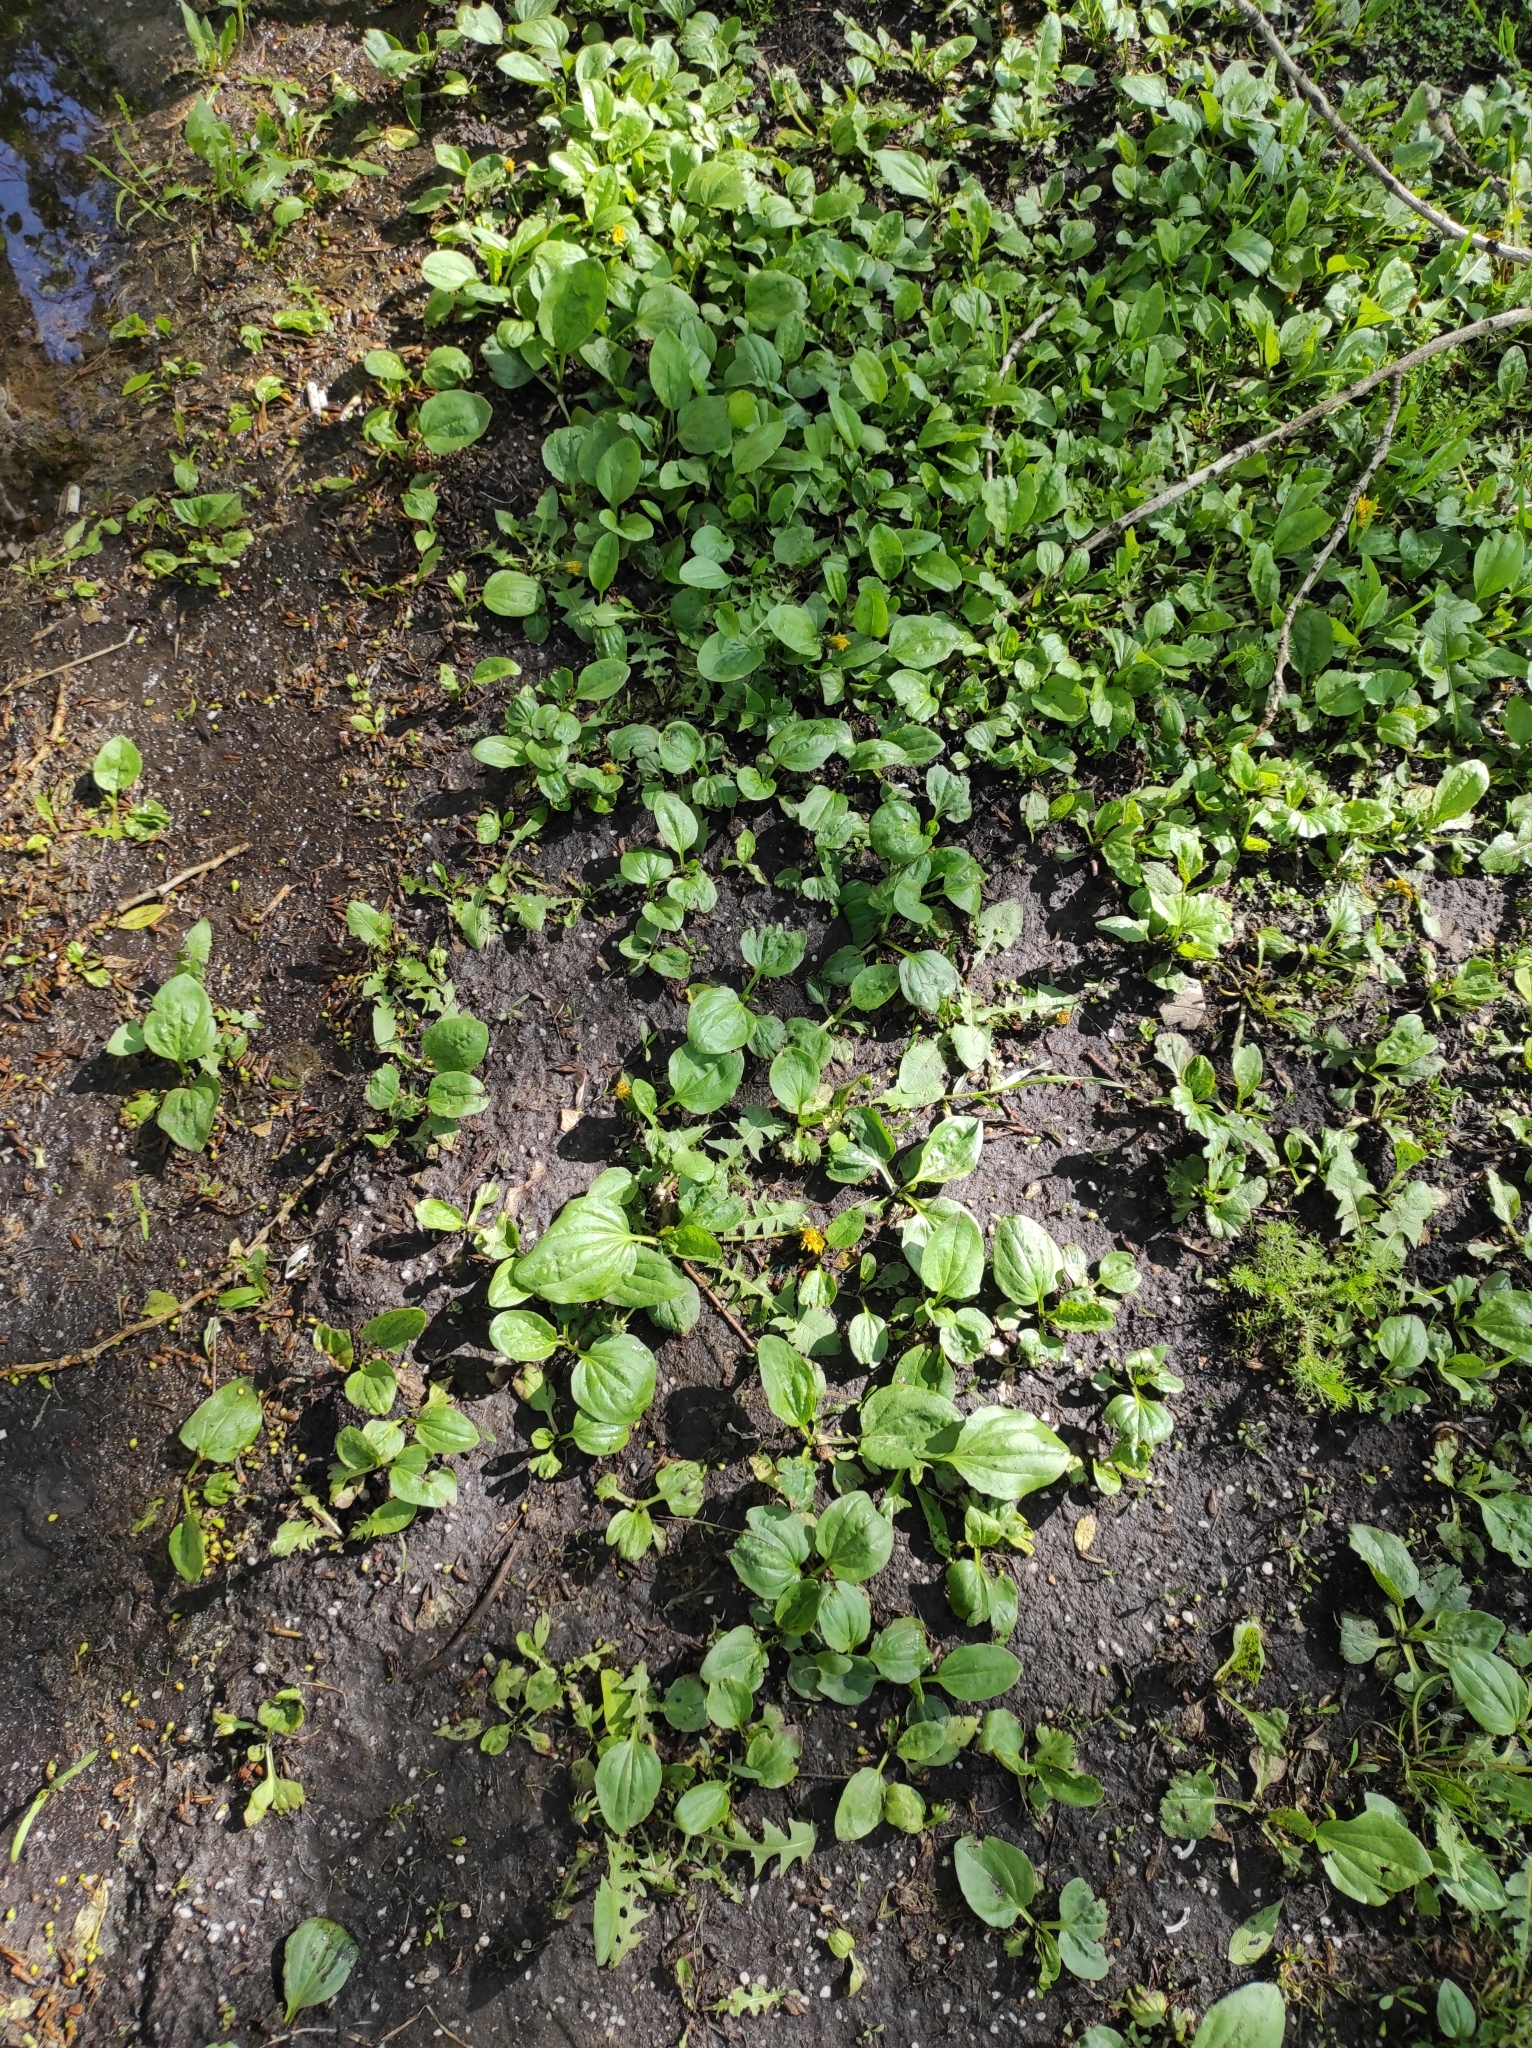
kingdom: Plantae
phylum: Tracheophyta
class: Magnoliopsida
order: Lamiales
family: Plantaginaceae
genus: Plantago
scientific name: Plantago major
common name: Common plantain
